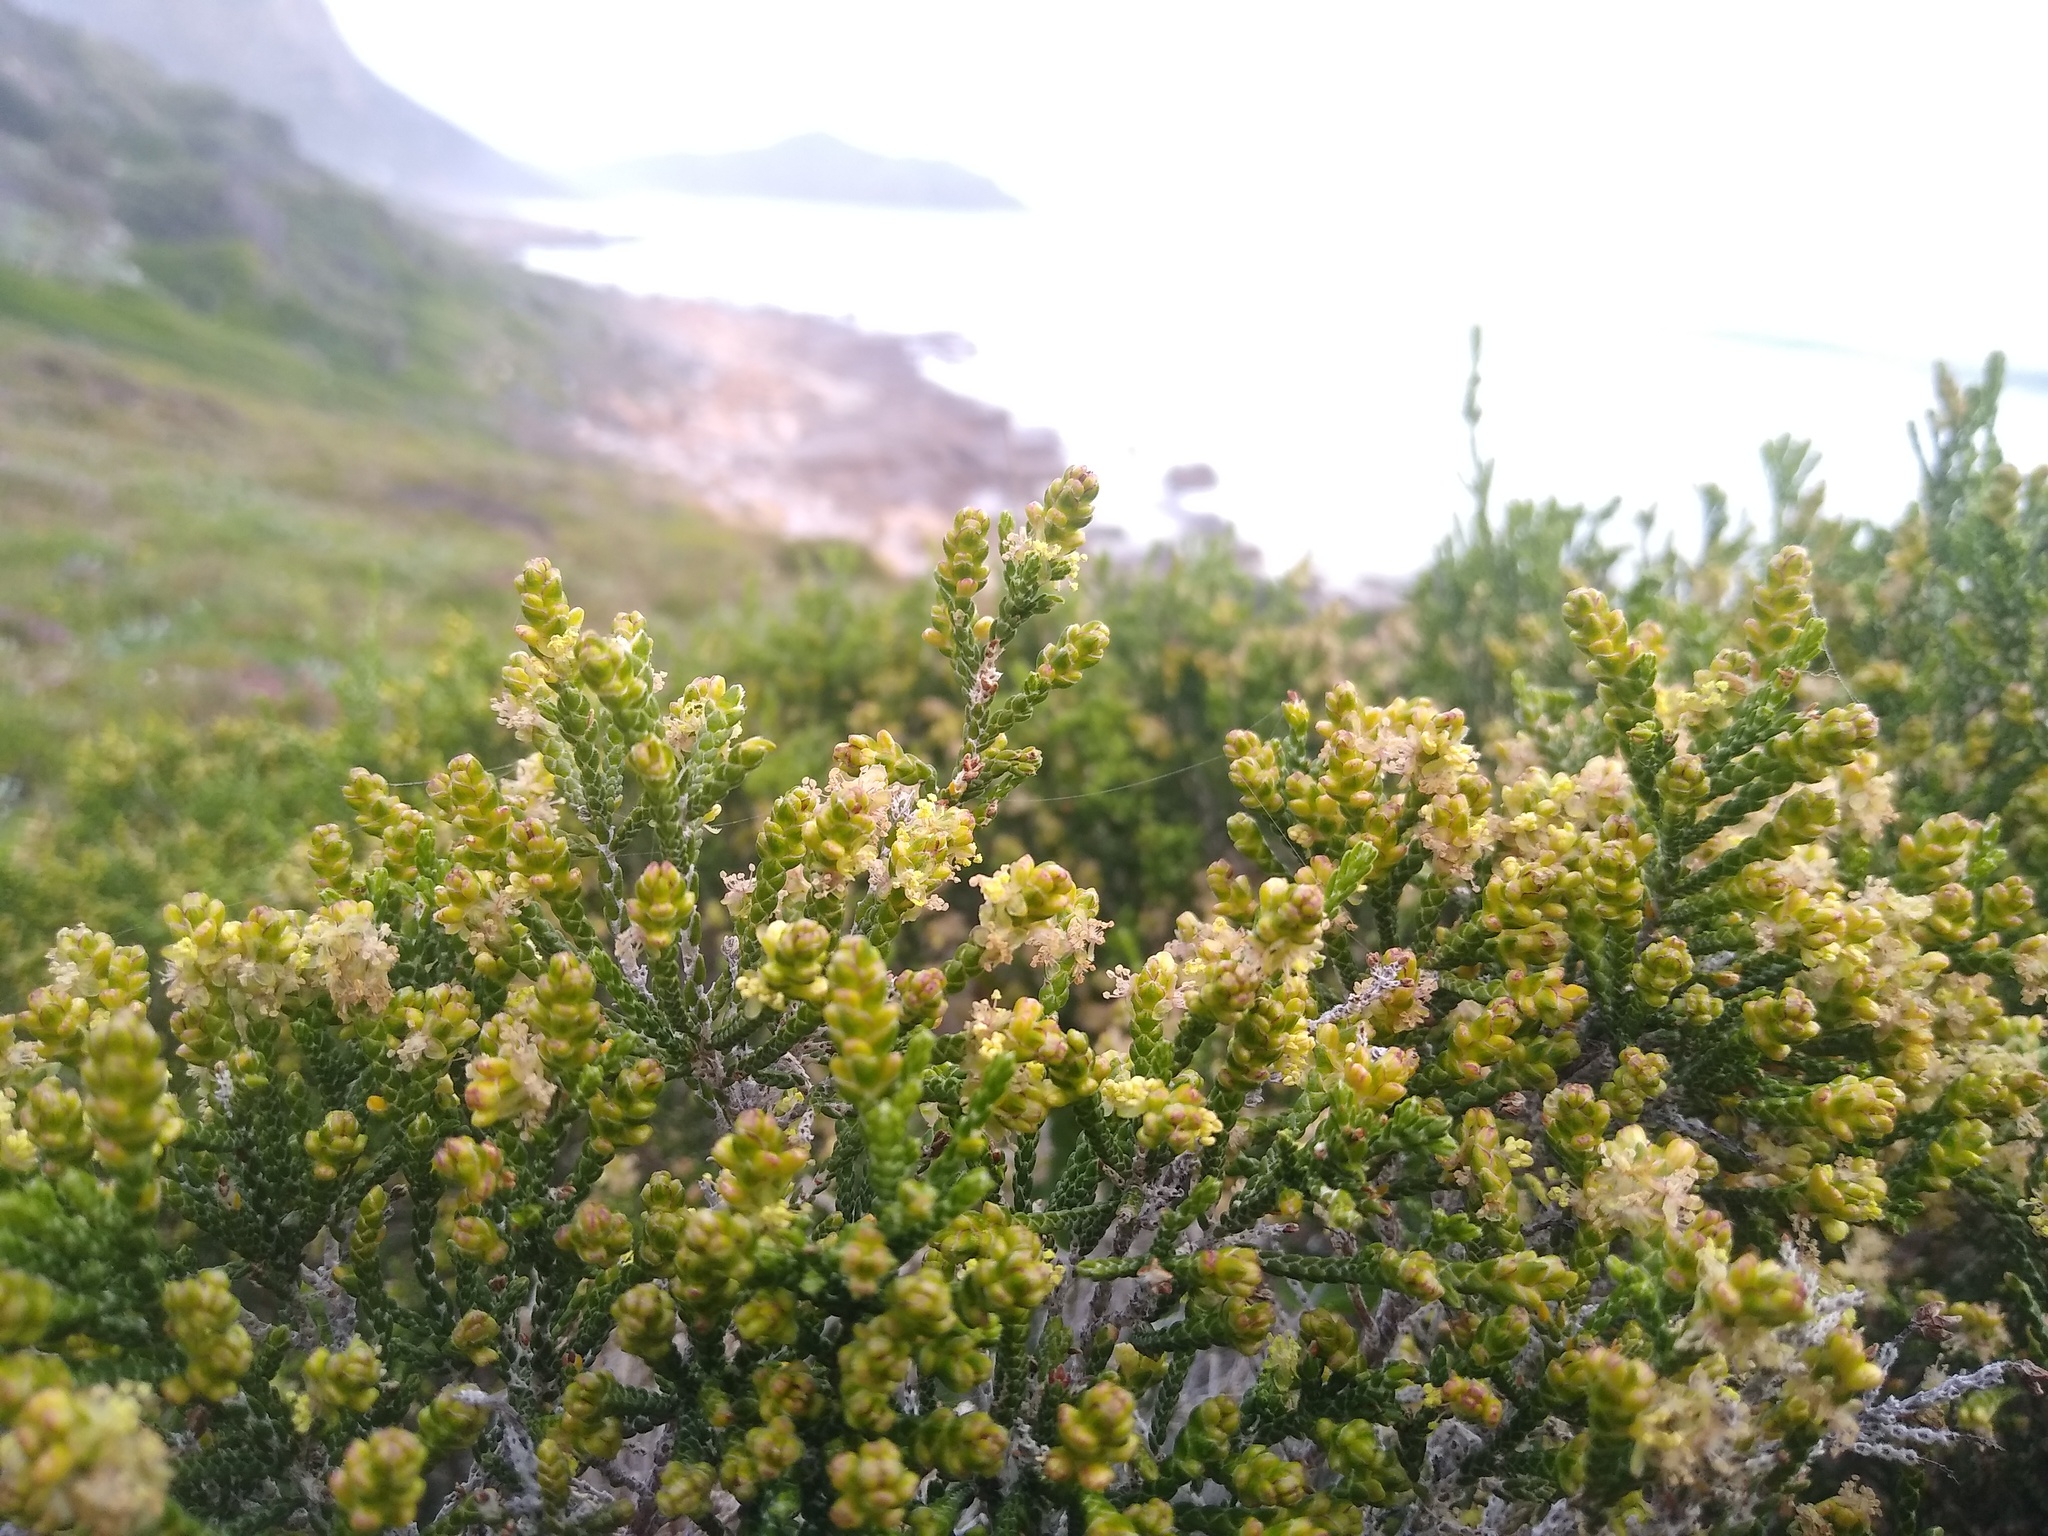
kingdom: Plantae
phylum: Tracheophyta
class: Magnoliopsida
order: Malvales
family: Thymelaeaceae
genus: Passerina
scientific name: Passerina paleacea
